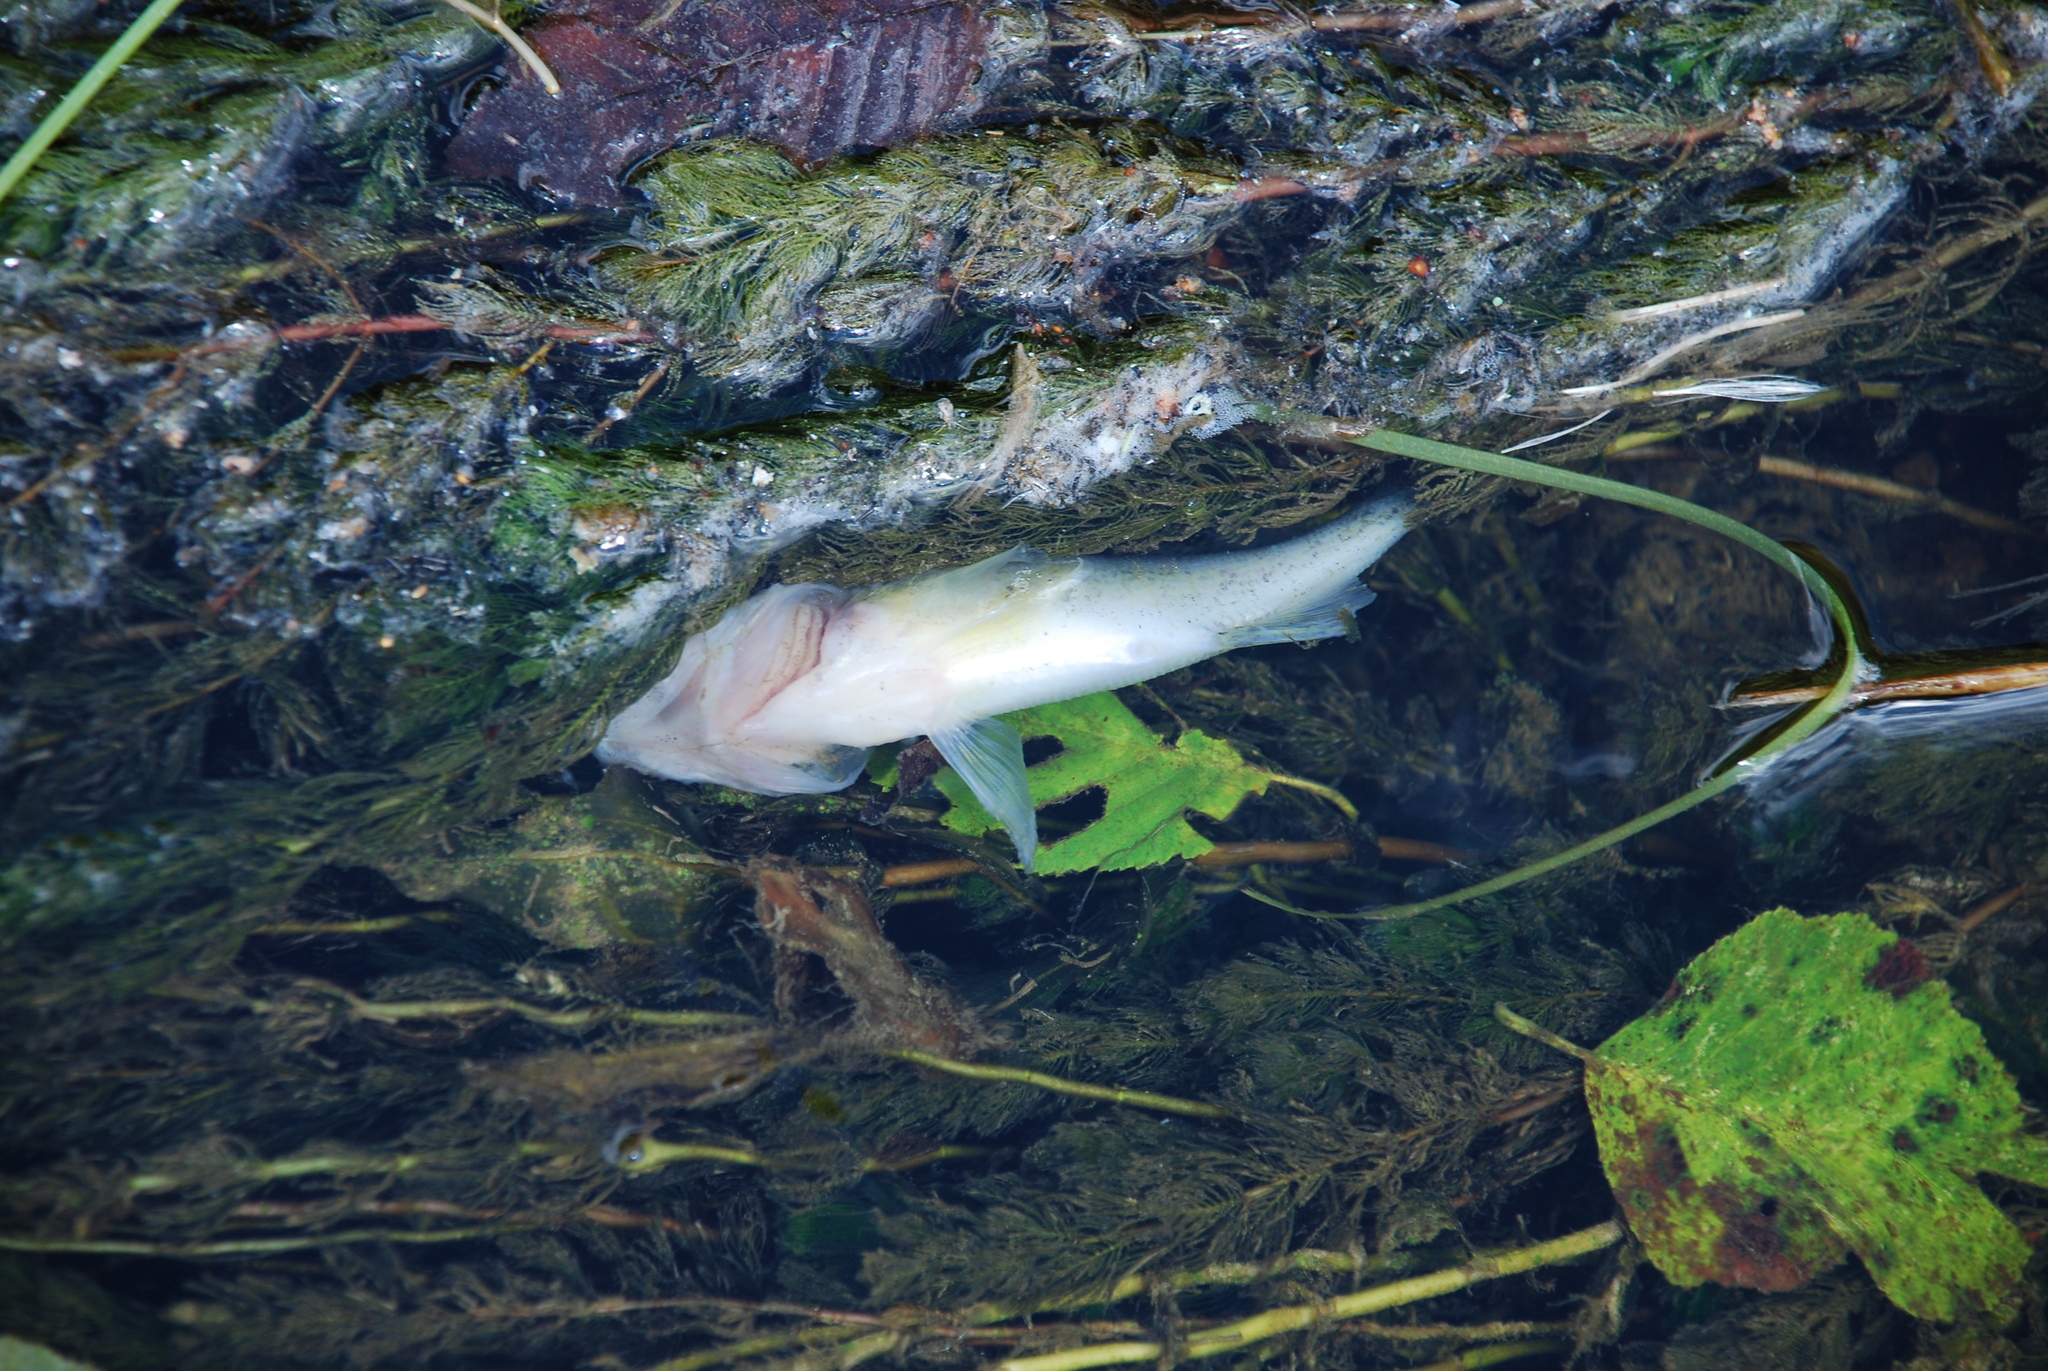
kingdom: Animalia
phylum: Chordata
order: Perciformes
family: Percidae
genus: Gymnocephalus
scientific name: Gymnocephalus cernua
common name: Ruffe
